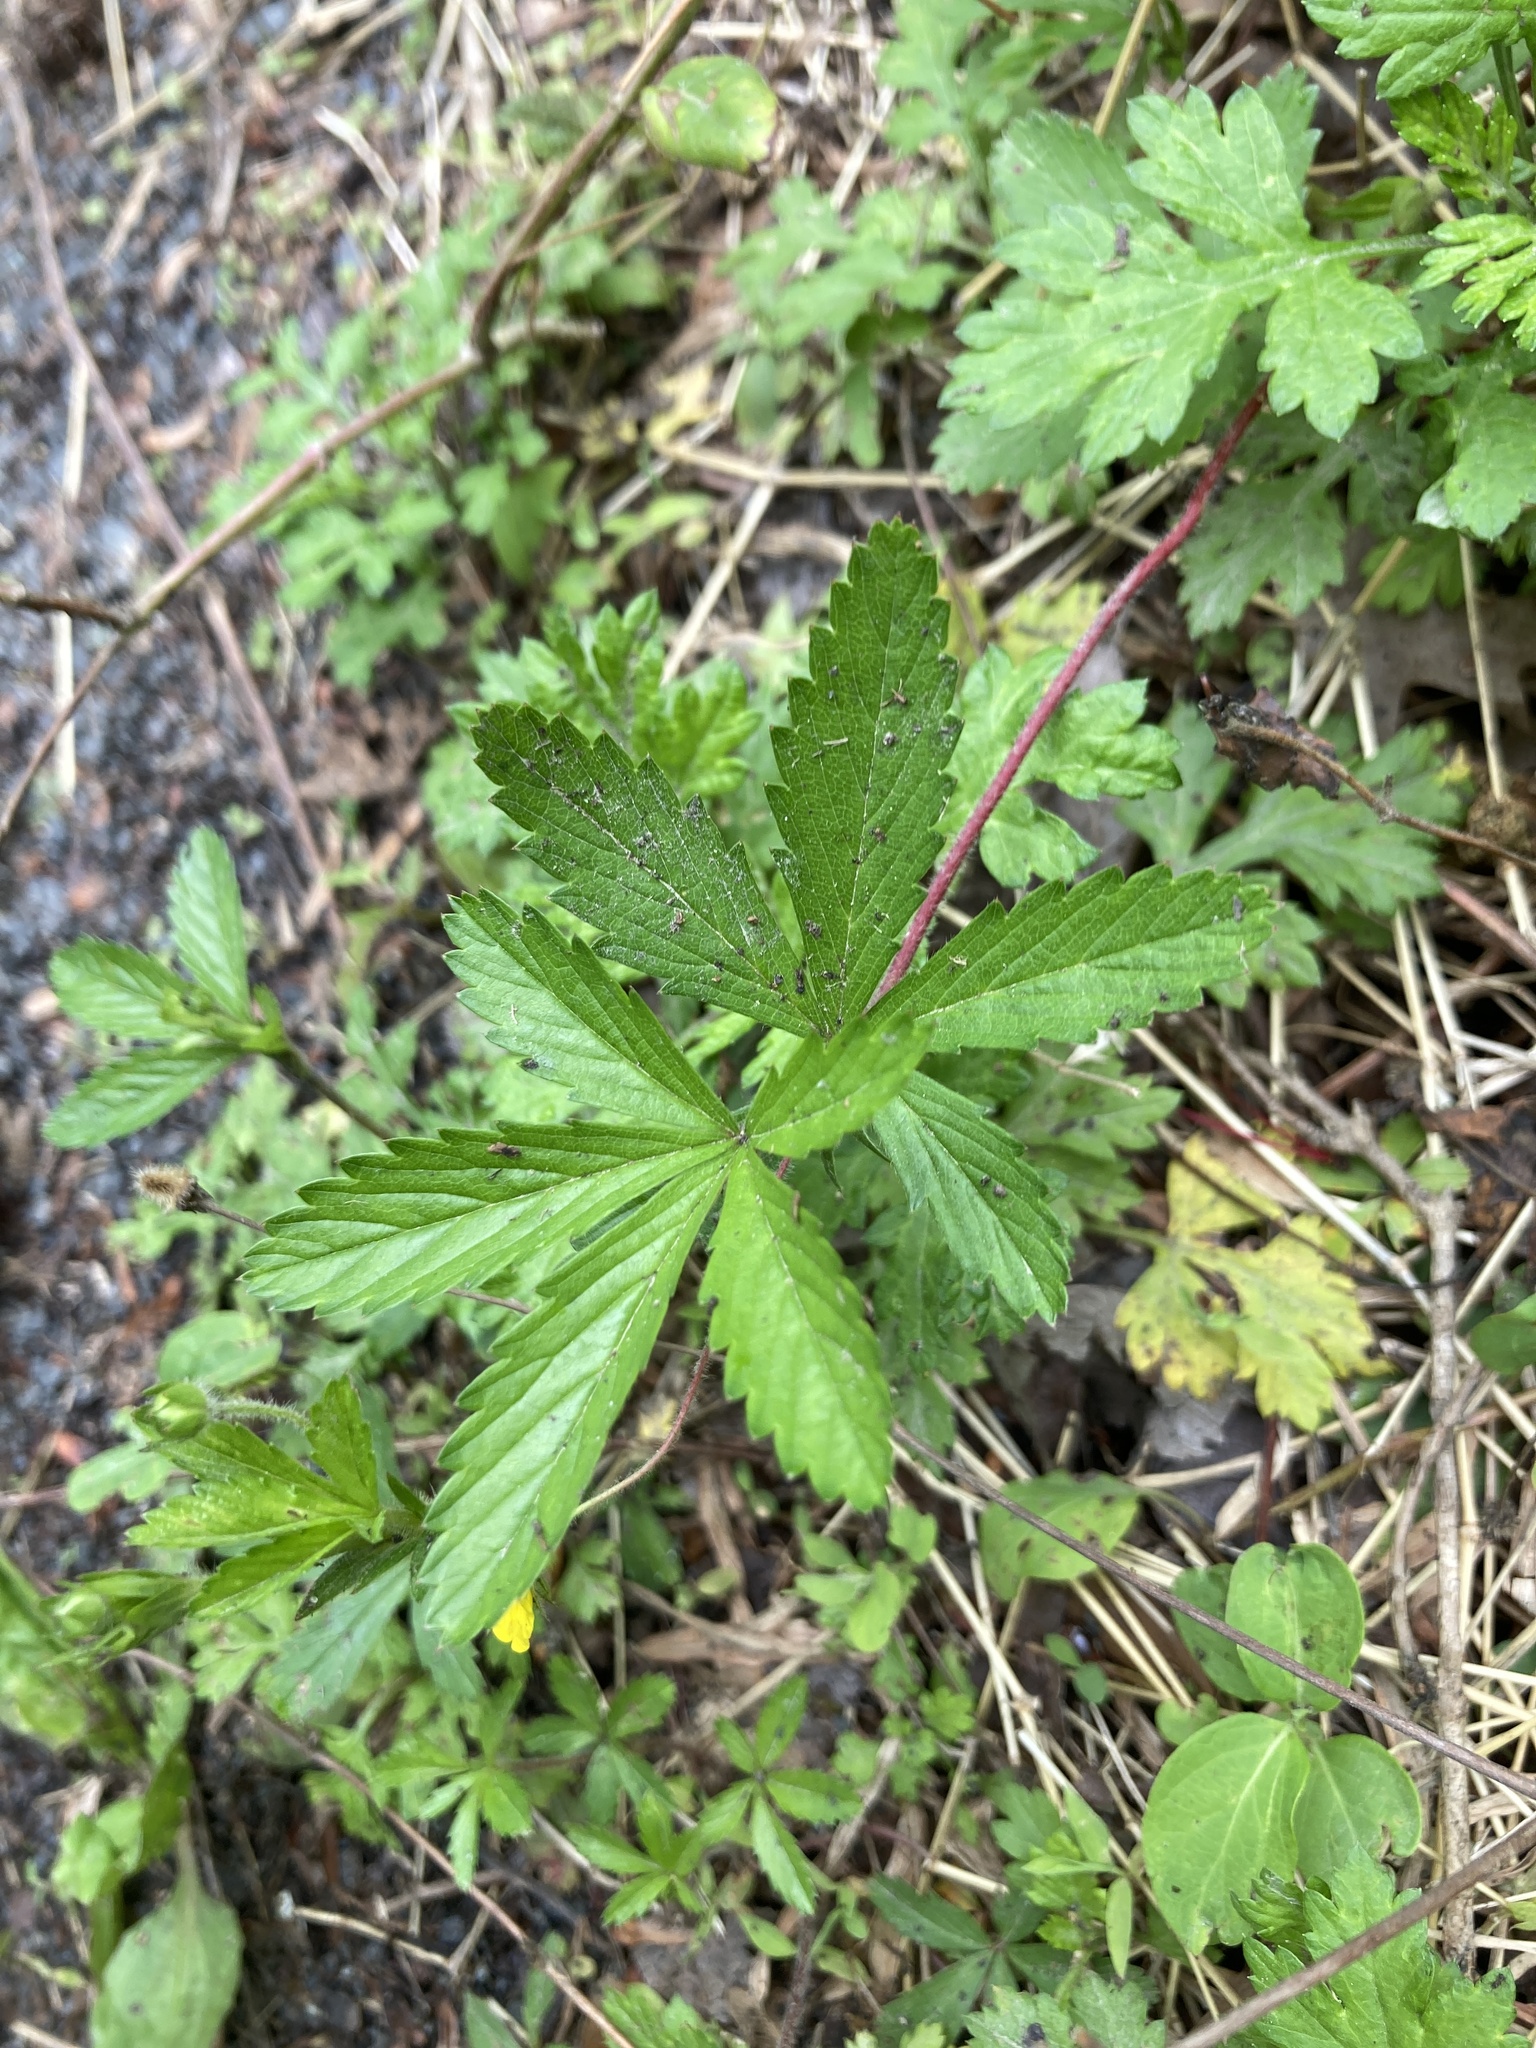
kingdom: Plantae
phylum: Tracheophyta
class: Magnoliopsida
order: Rosales
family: Rosaceae
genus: Potentilla
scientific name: Potentilla simplex
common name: Old field cinquefoil
